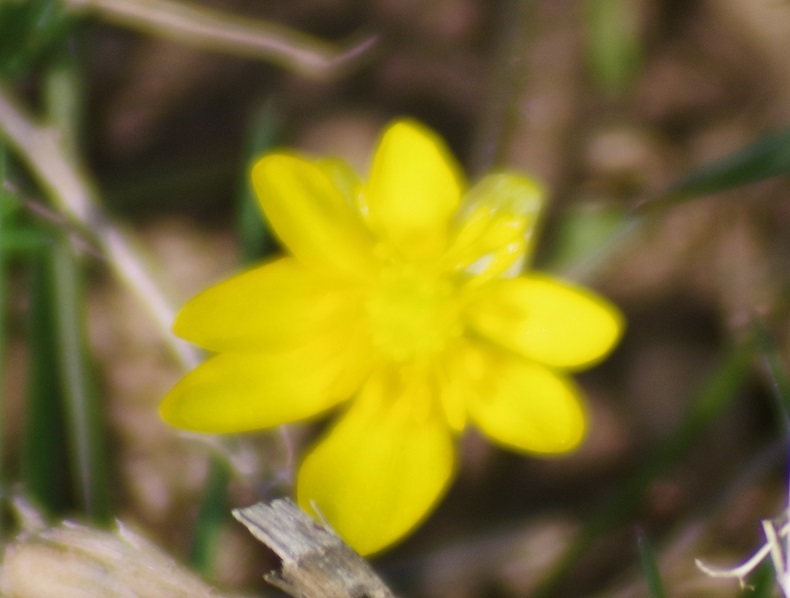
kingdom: Plantae
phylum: Tracheophyta
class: Magnoliopsida
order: Ranunculales
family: Ranunculaceae
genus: Ficaria
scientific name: Ficaria verna
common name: Lesser celandine
